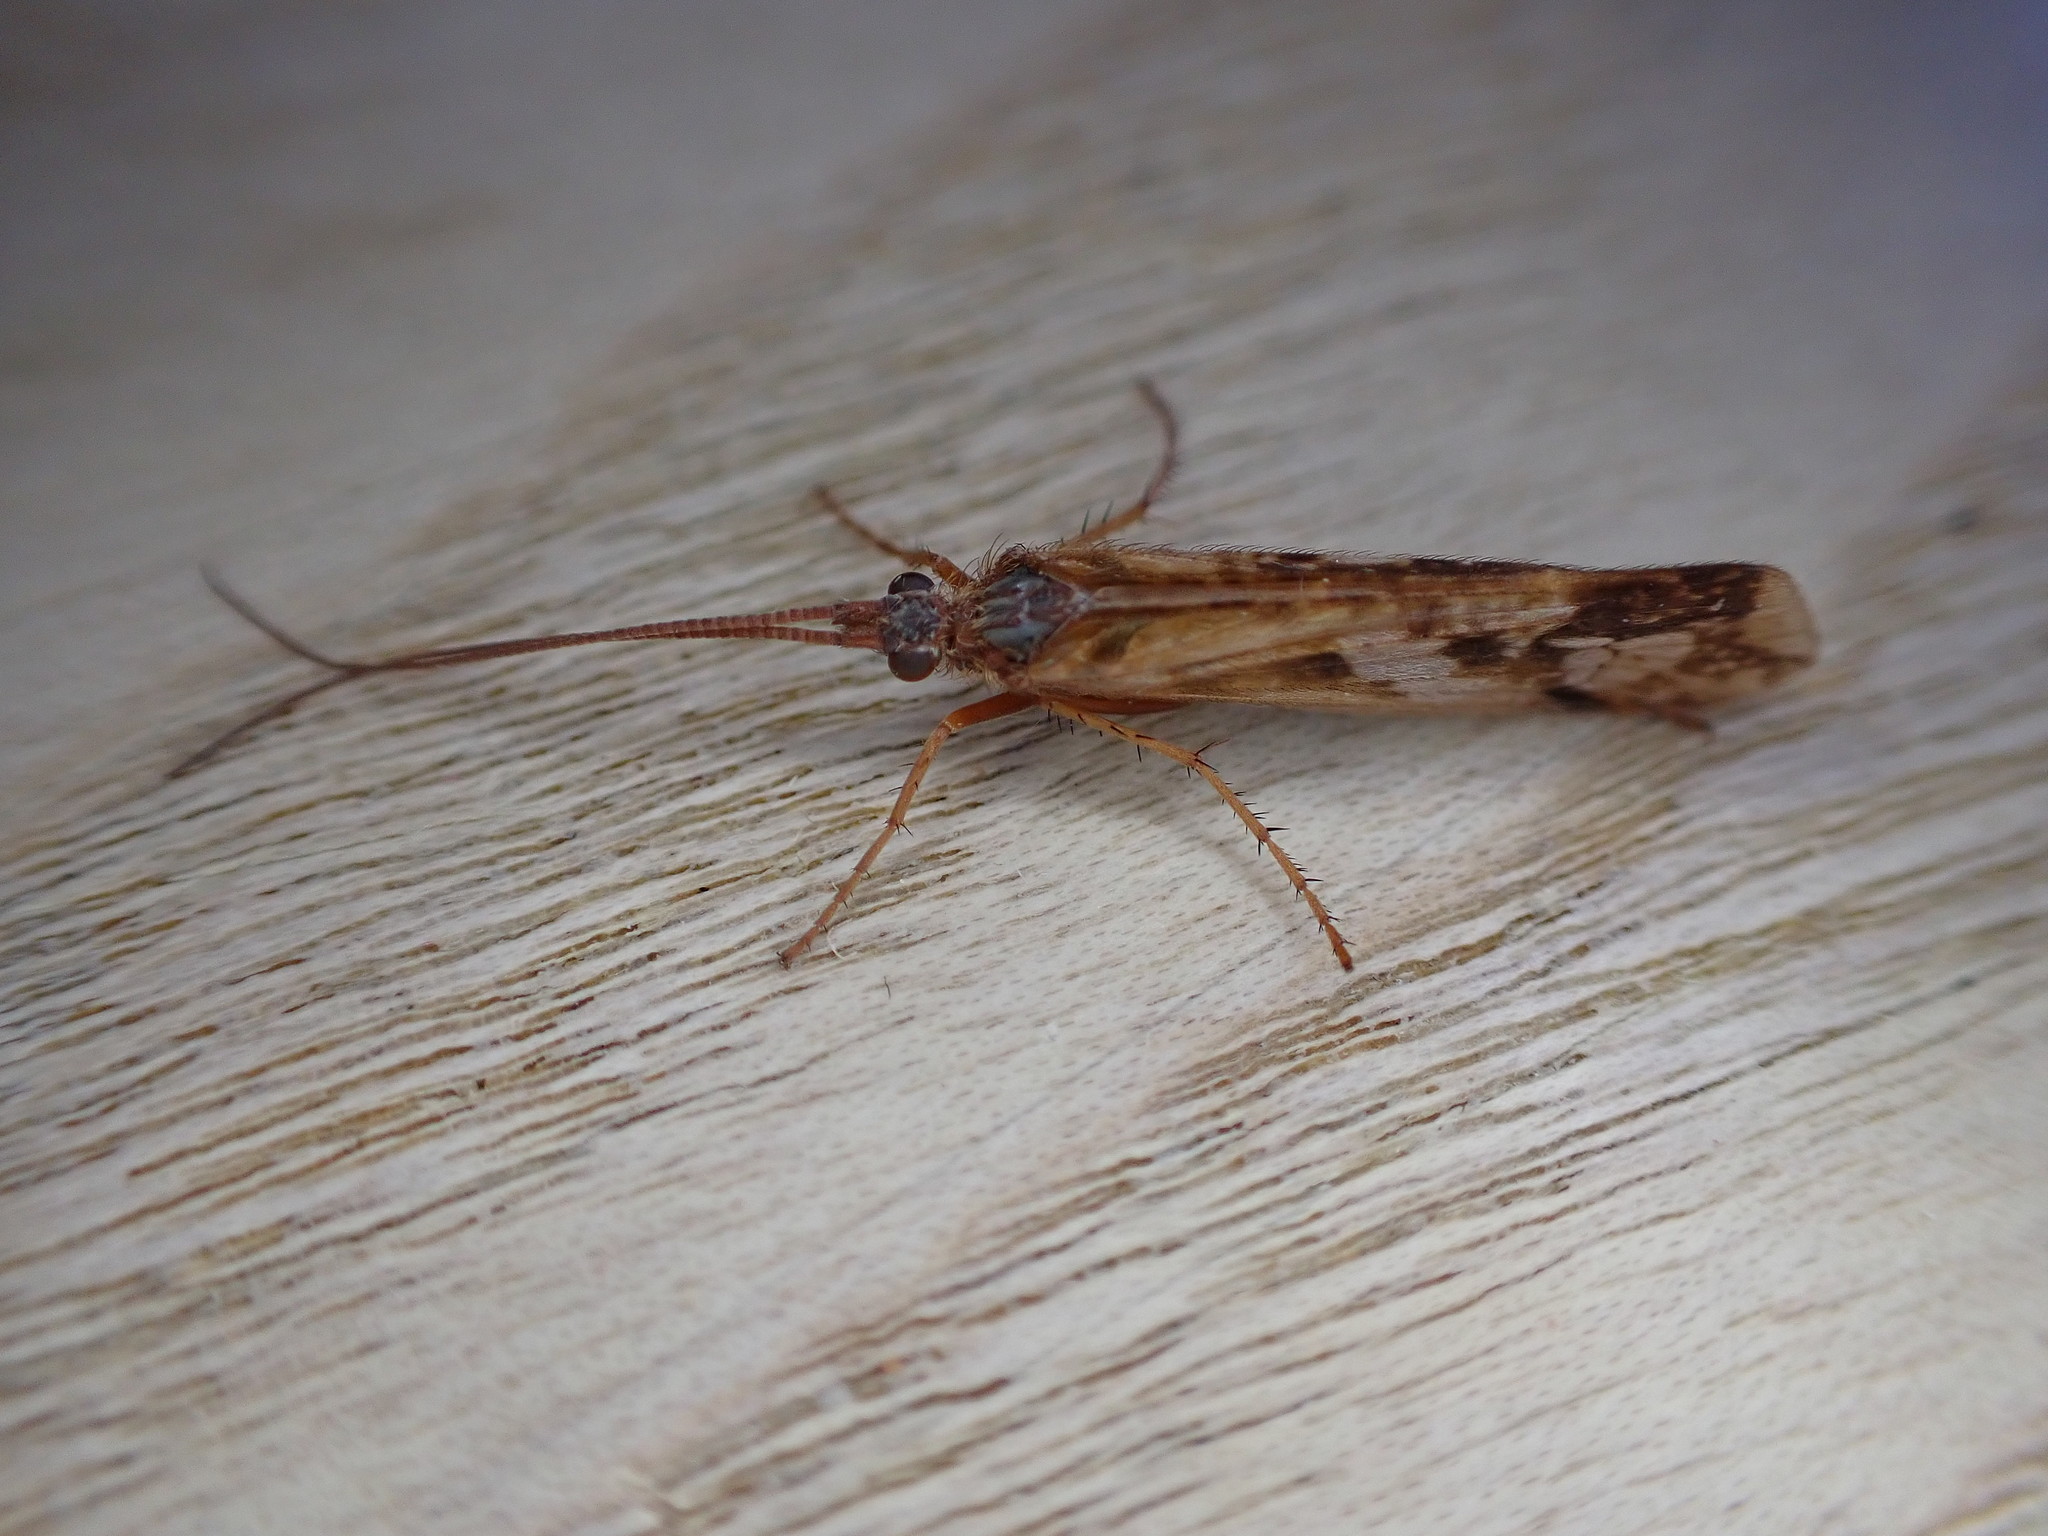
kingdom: Animalia
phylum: Arthropoda
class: Insecta
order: Trichoptera
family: Limnephilidae
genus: Limnephilus
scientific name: Limnephilus lunatus
